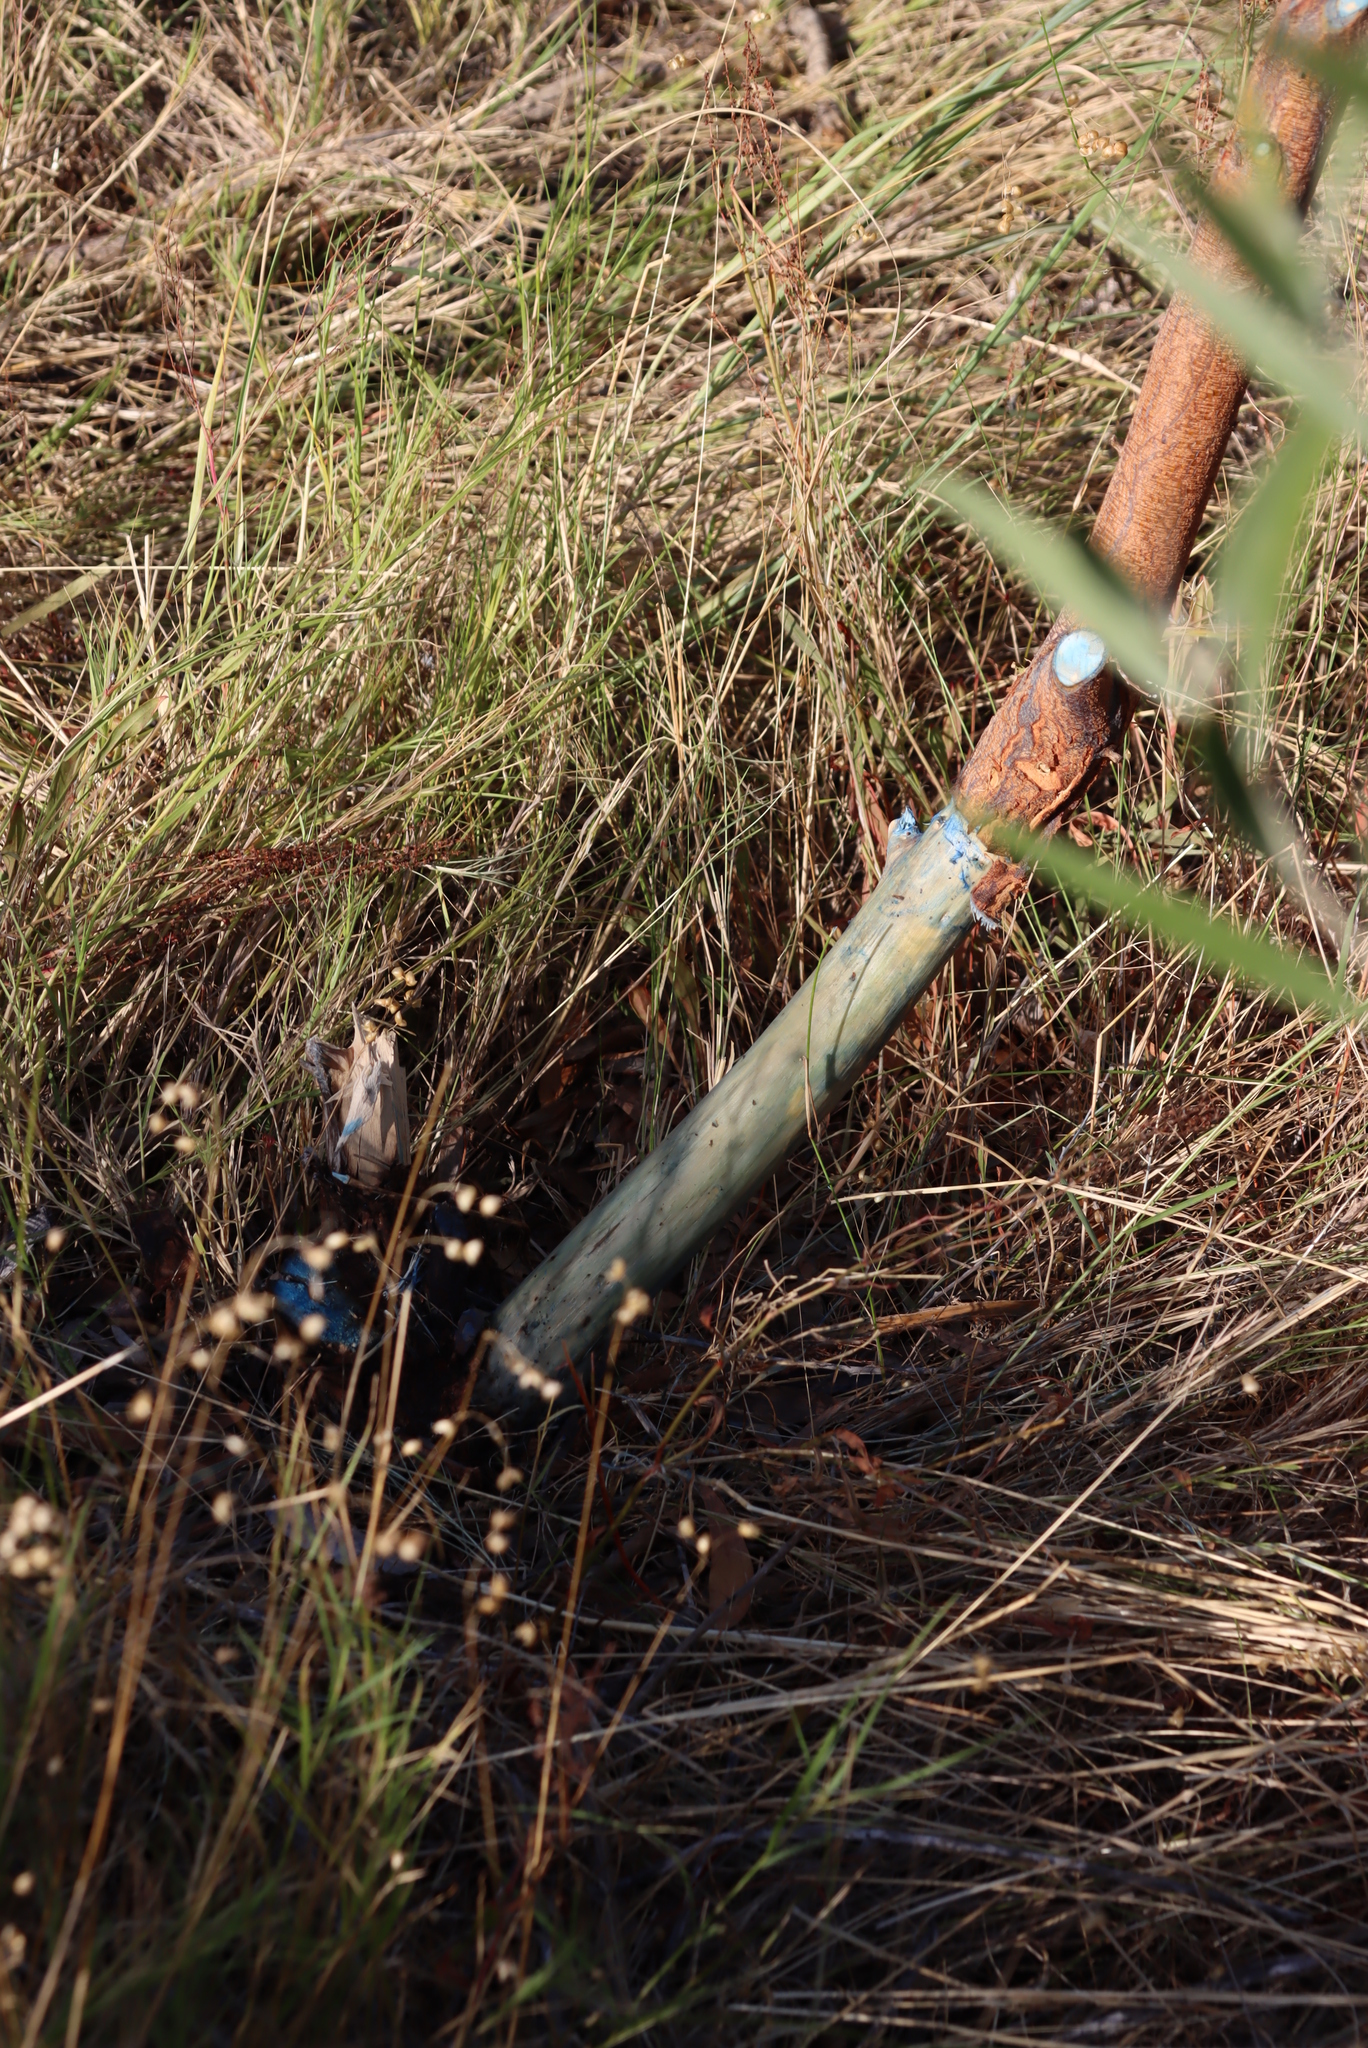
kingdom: Plantae
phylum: Tracheophyta
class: Magnoliopsida
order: Fabales
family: Fabaceae
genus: Acacia
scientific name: Acacia melanoxylon
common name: Blackwood
